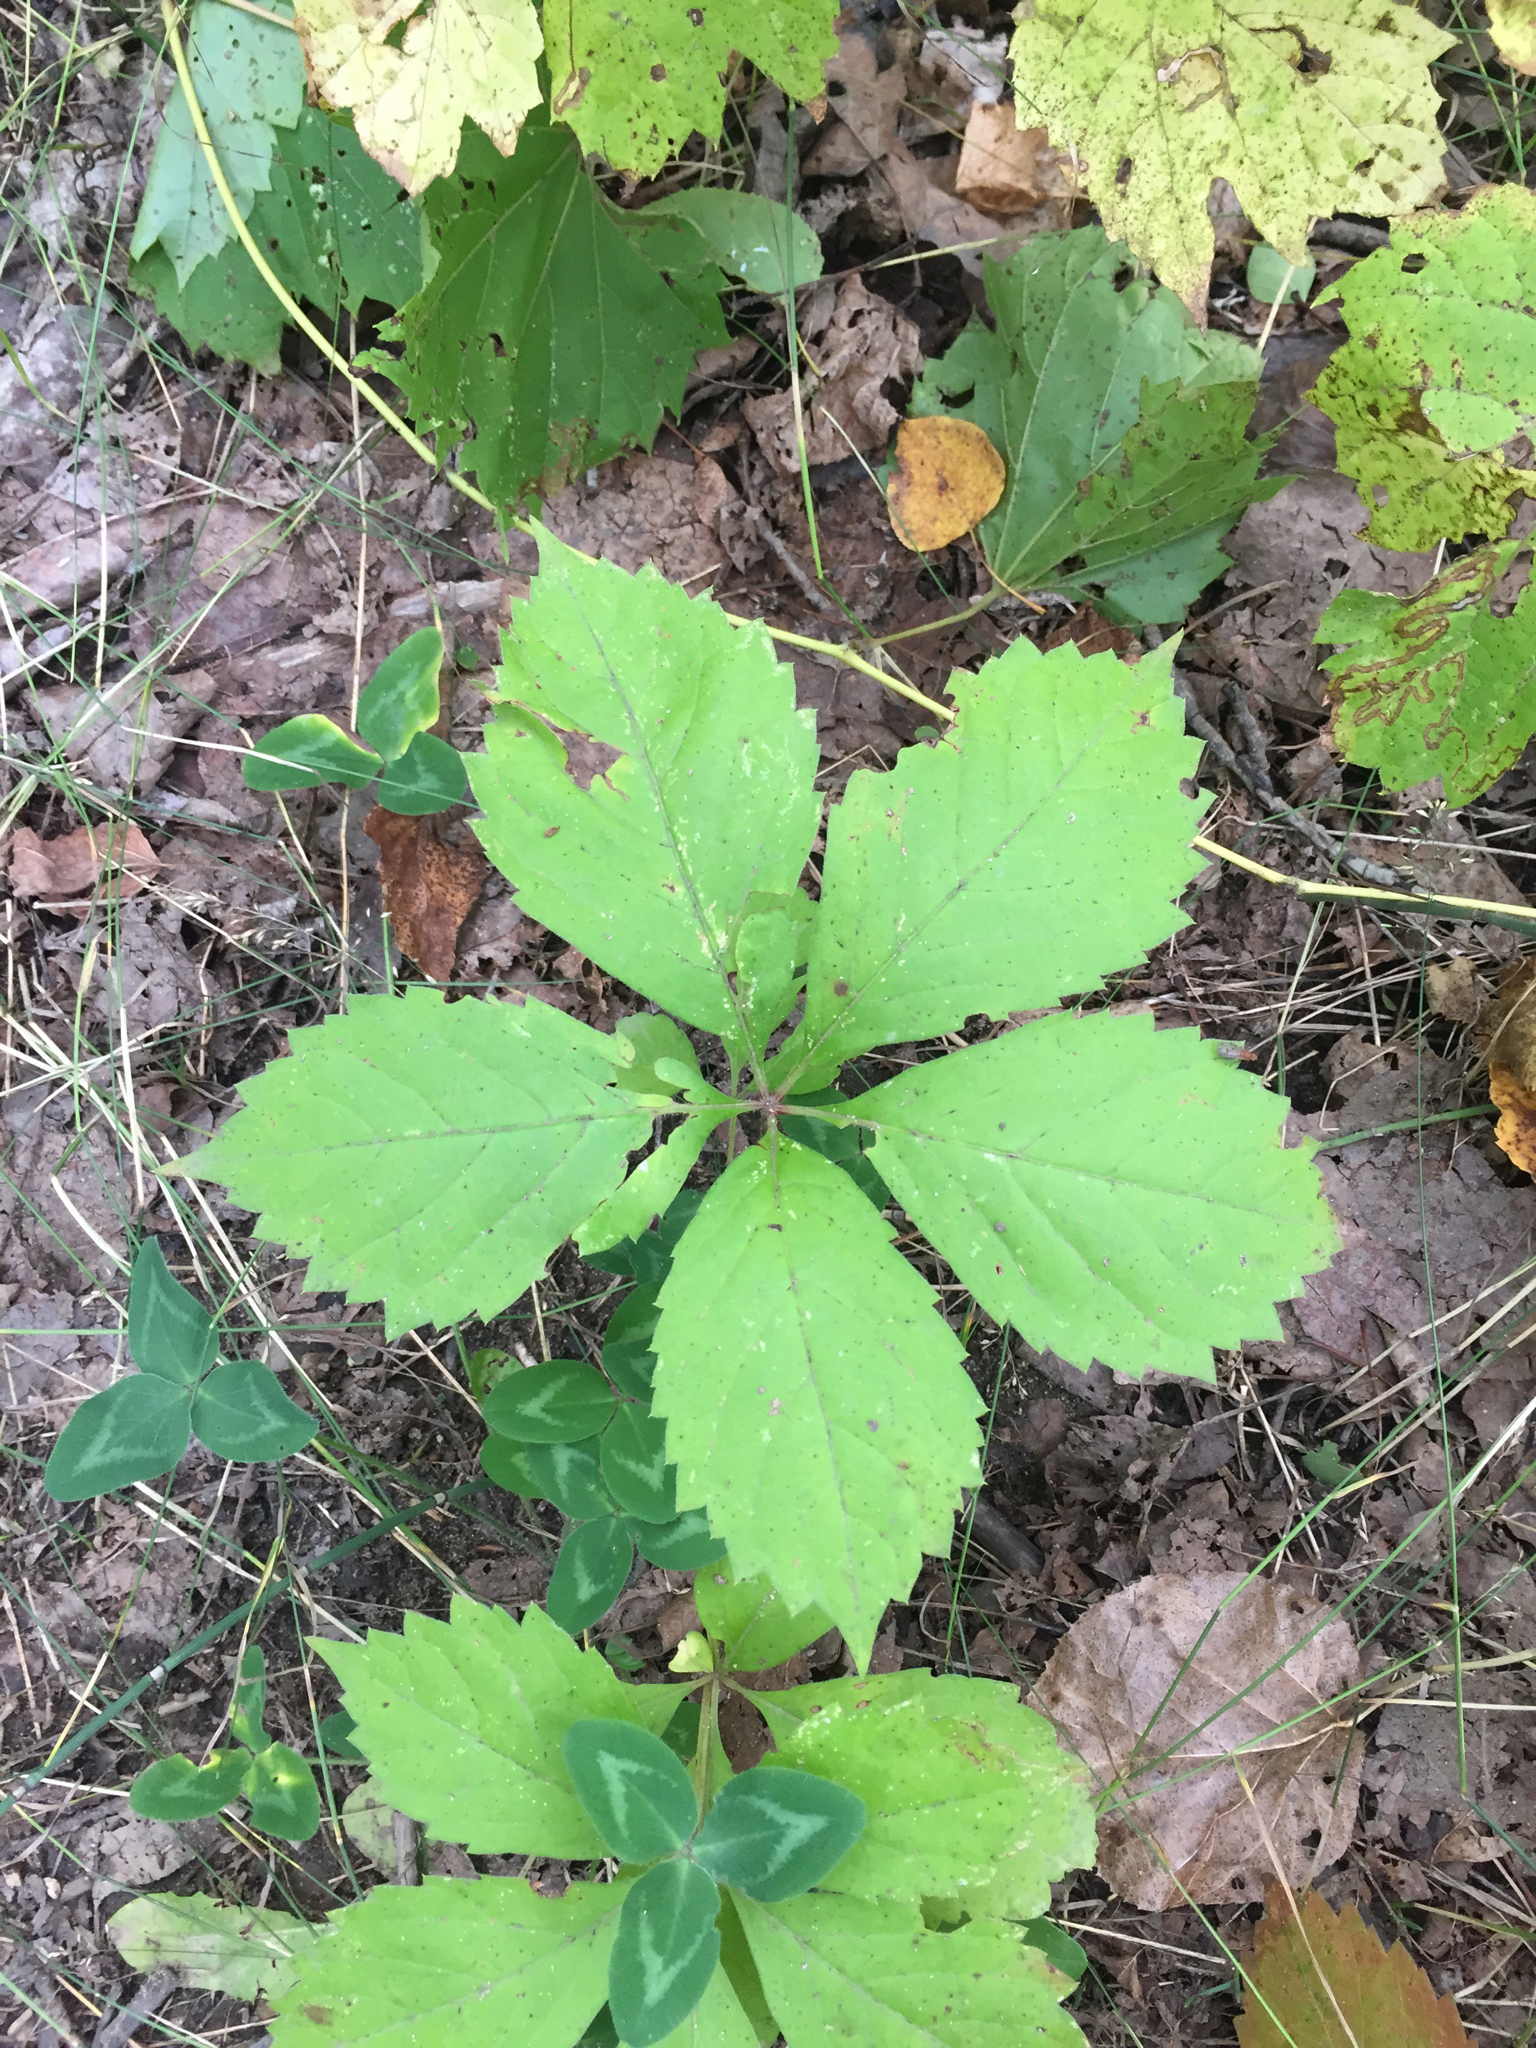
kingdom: Plantae
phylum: Tracheophyta
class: Magnoliopsida
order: Vitales
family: Vitaceae
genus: Parthenocissus
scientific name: Parthenocissus inserta
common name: False virginia-creeper
